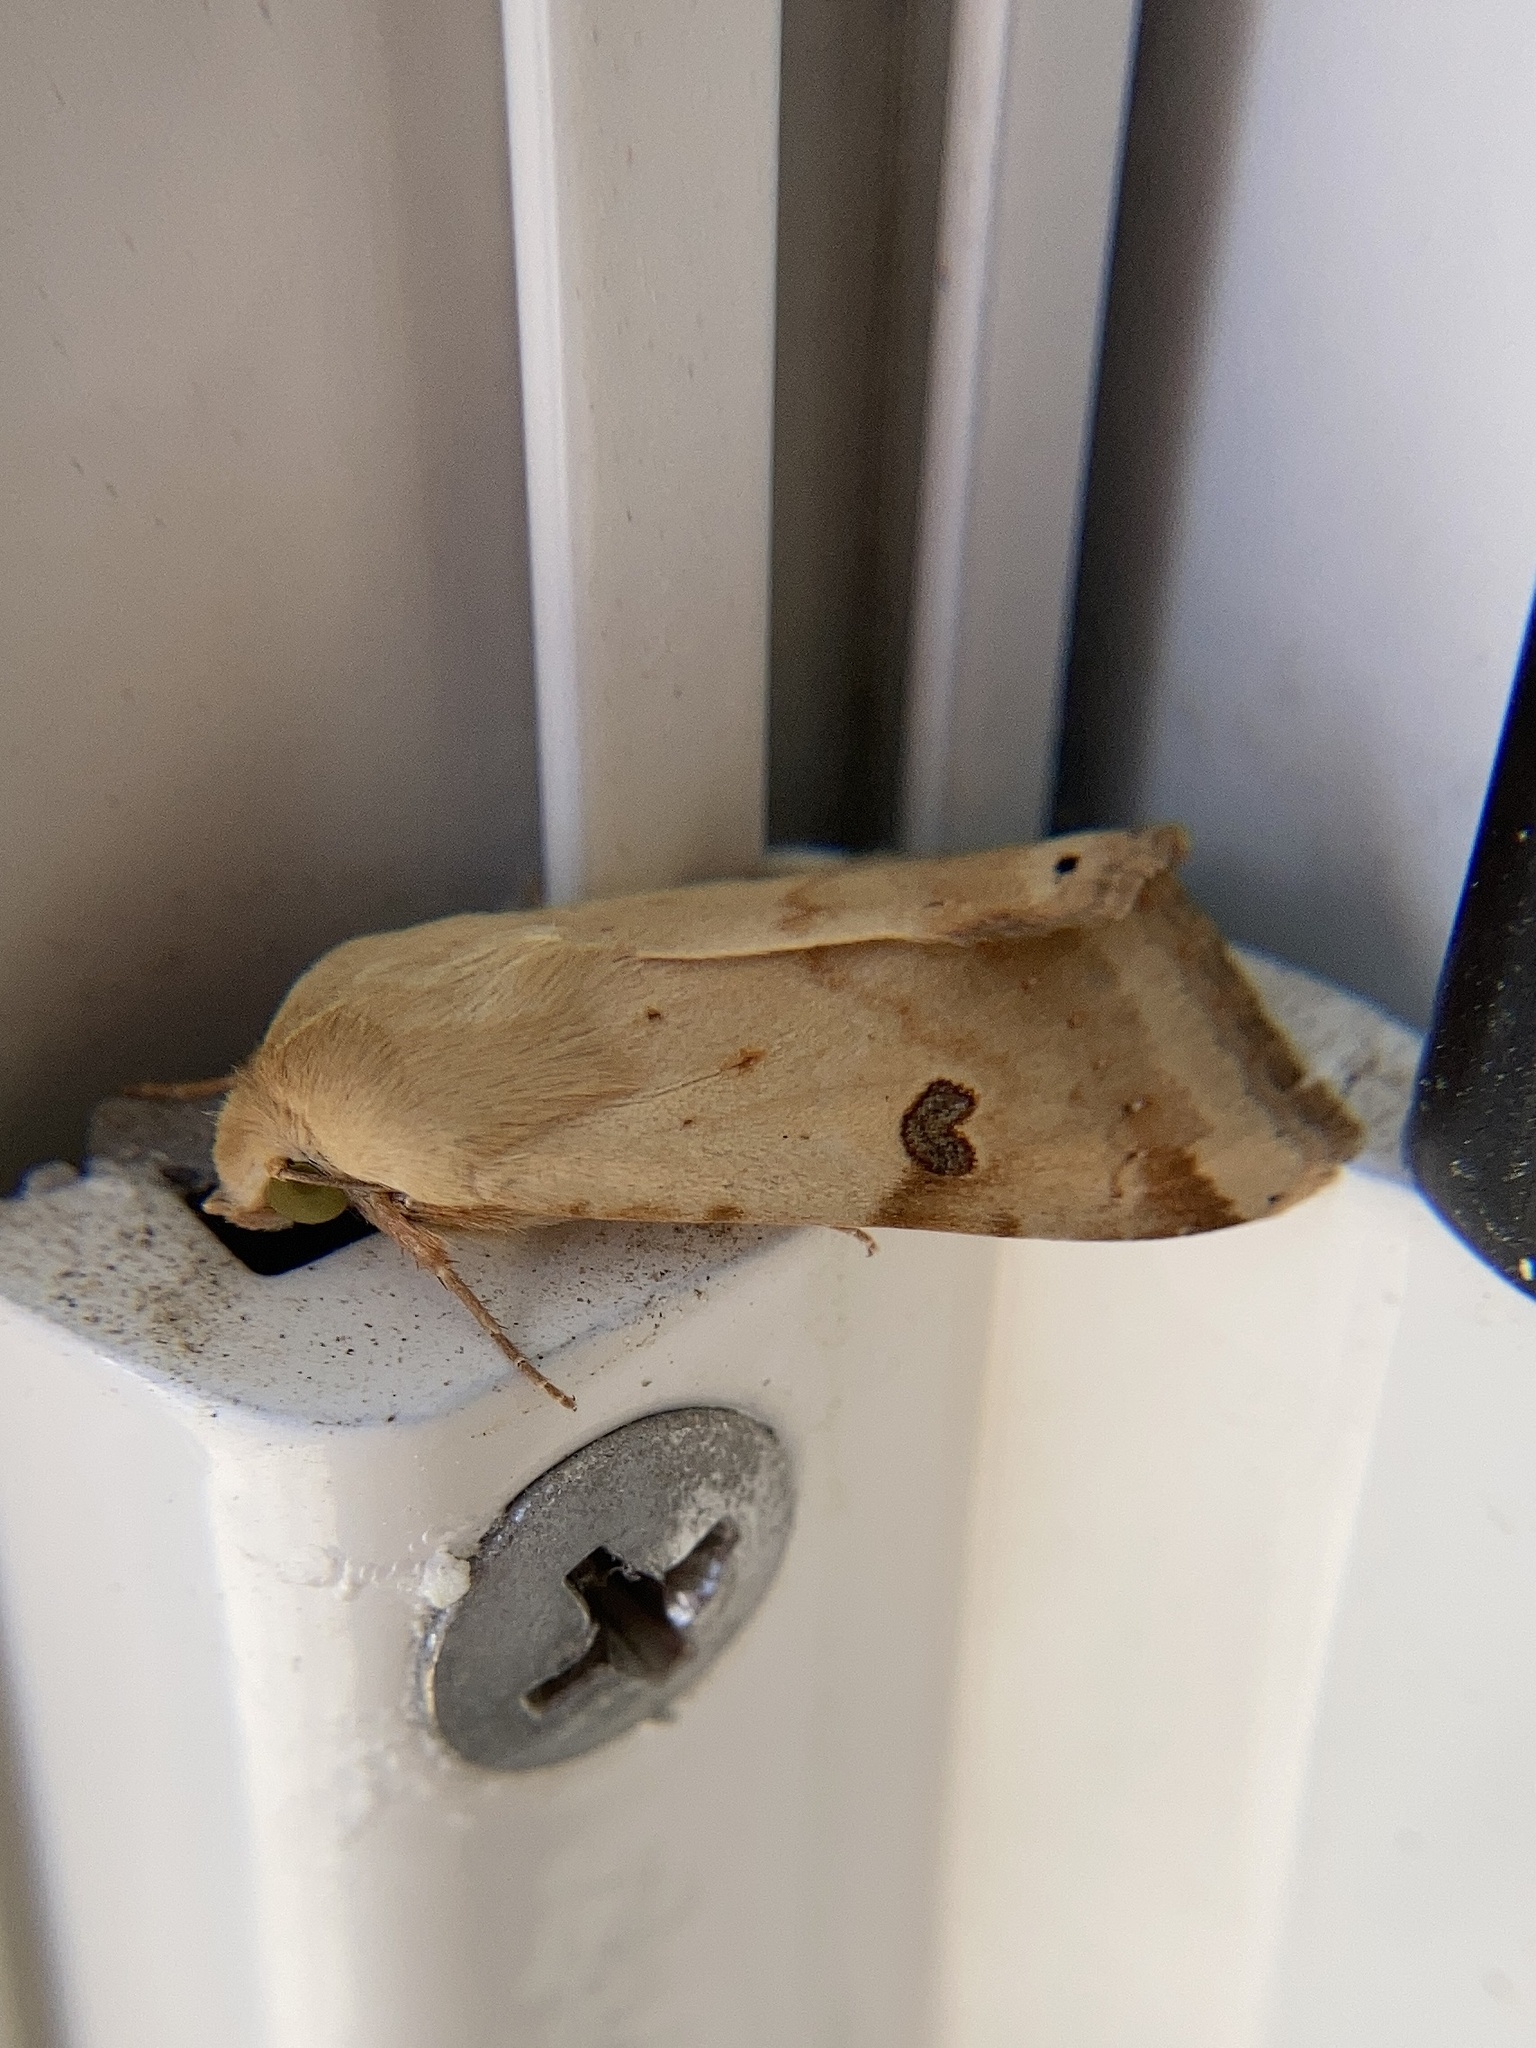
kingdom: Animalia
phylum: Arthropoda
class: Insecta
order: Lepidoptera
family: Noctuidae
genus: Heliothis
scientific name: Heliothis peltigera
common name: Bordered straw
